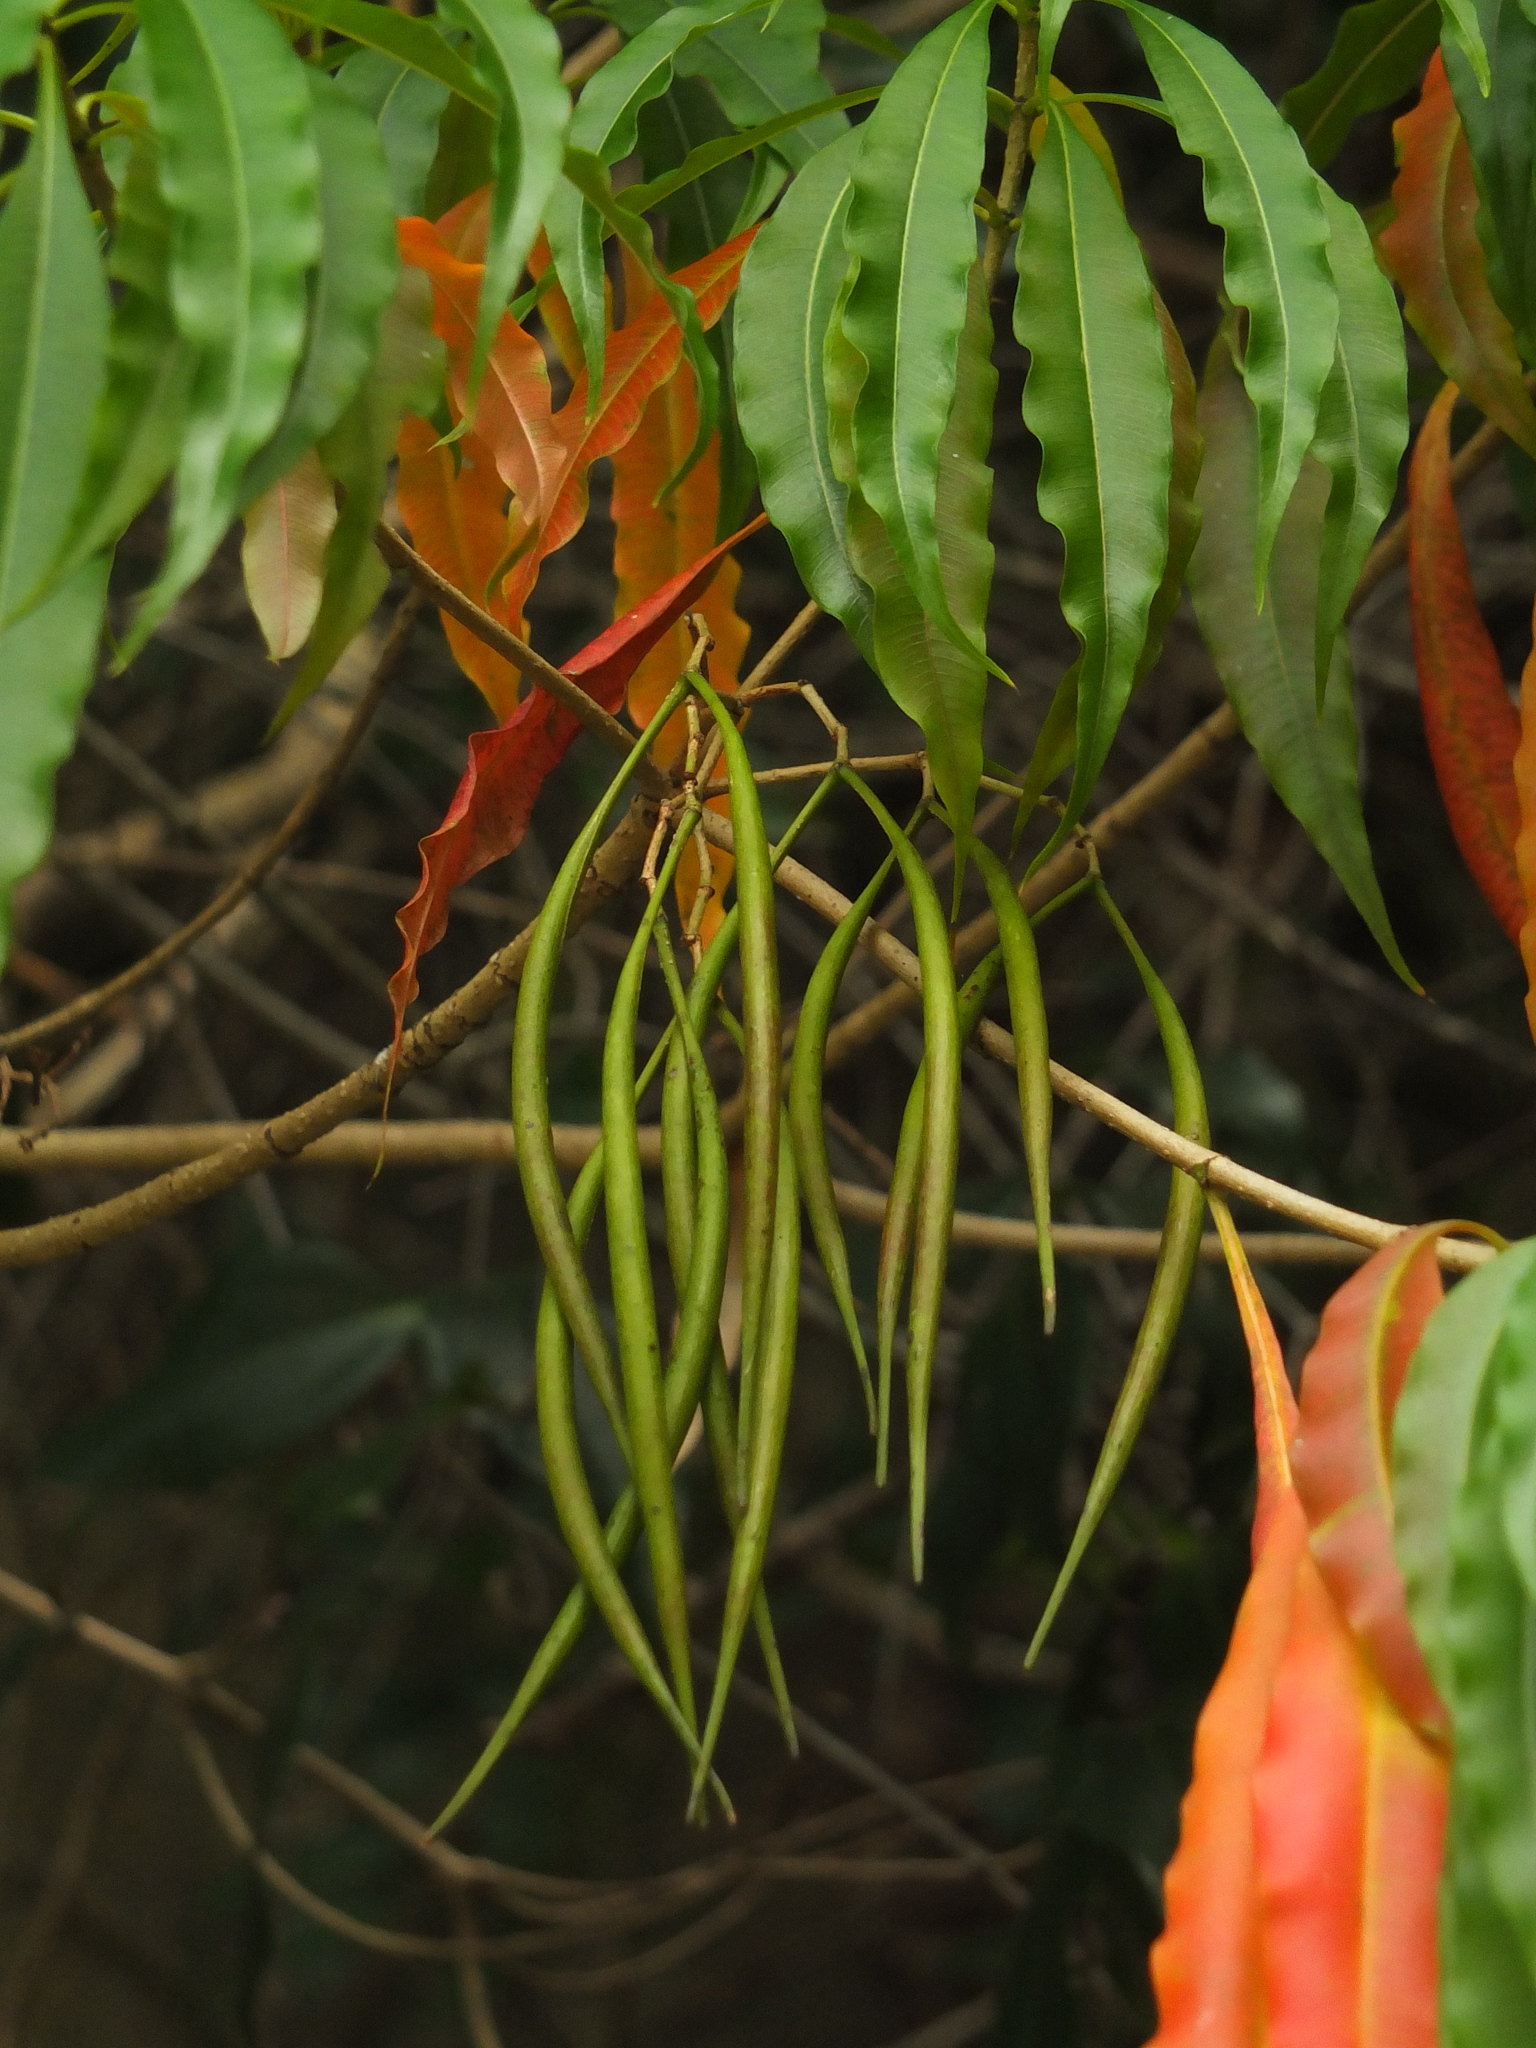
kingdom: Plantae
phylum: Tracheophyta
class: Magnoliopsida
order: Gentianales
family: Apocynaceae
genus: Alstonia
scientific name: Alstonia venenata
